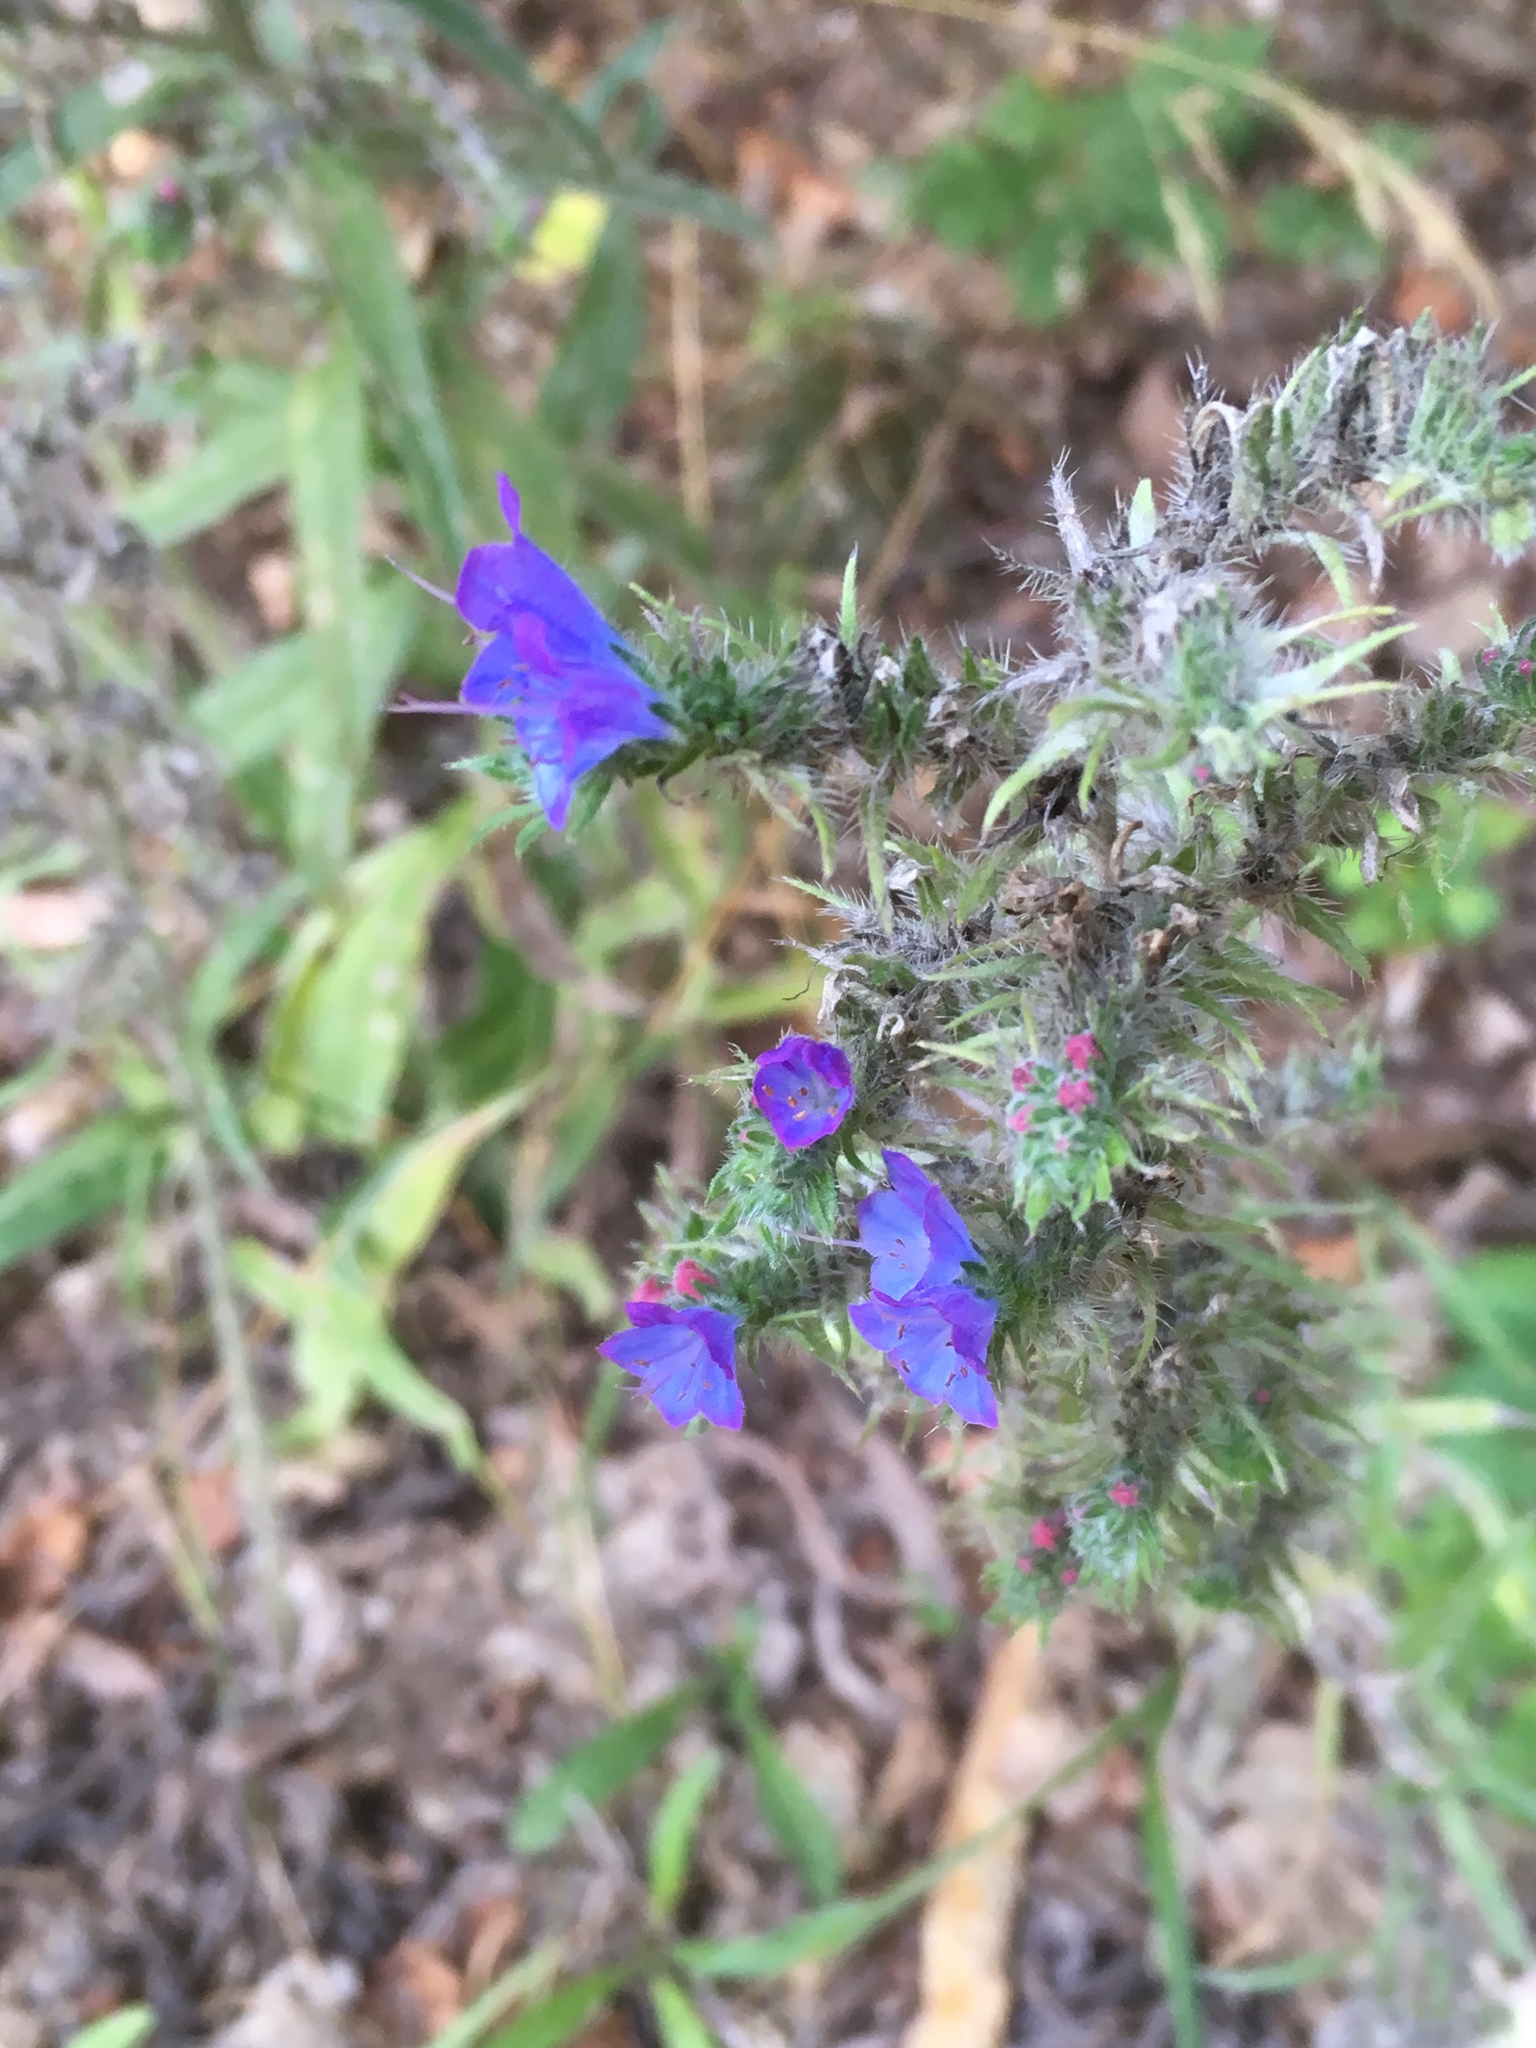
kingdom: Plantae
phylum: Tracheophyta
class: Magnoliopsida
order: Boraginales
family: Boraginaceae
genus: Echium
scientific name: Echium vulgare
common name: Common viper's bugloss
